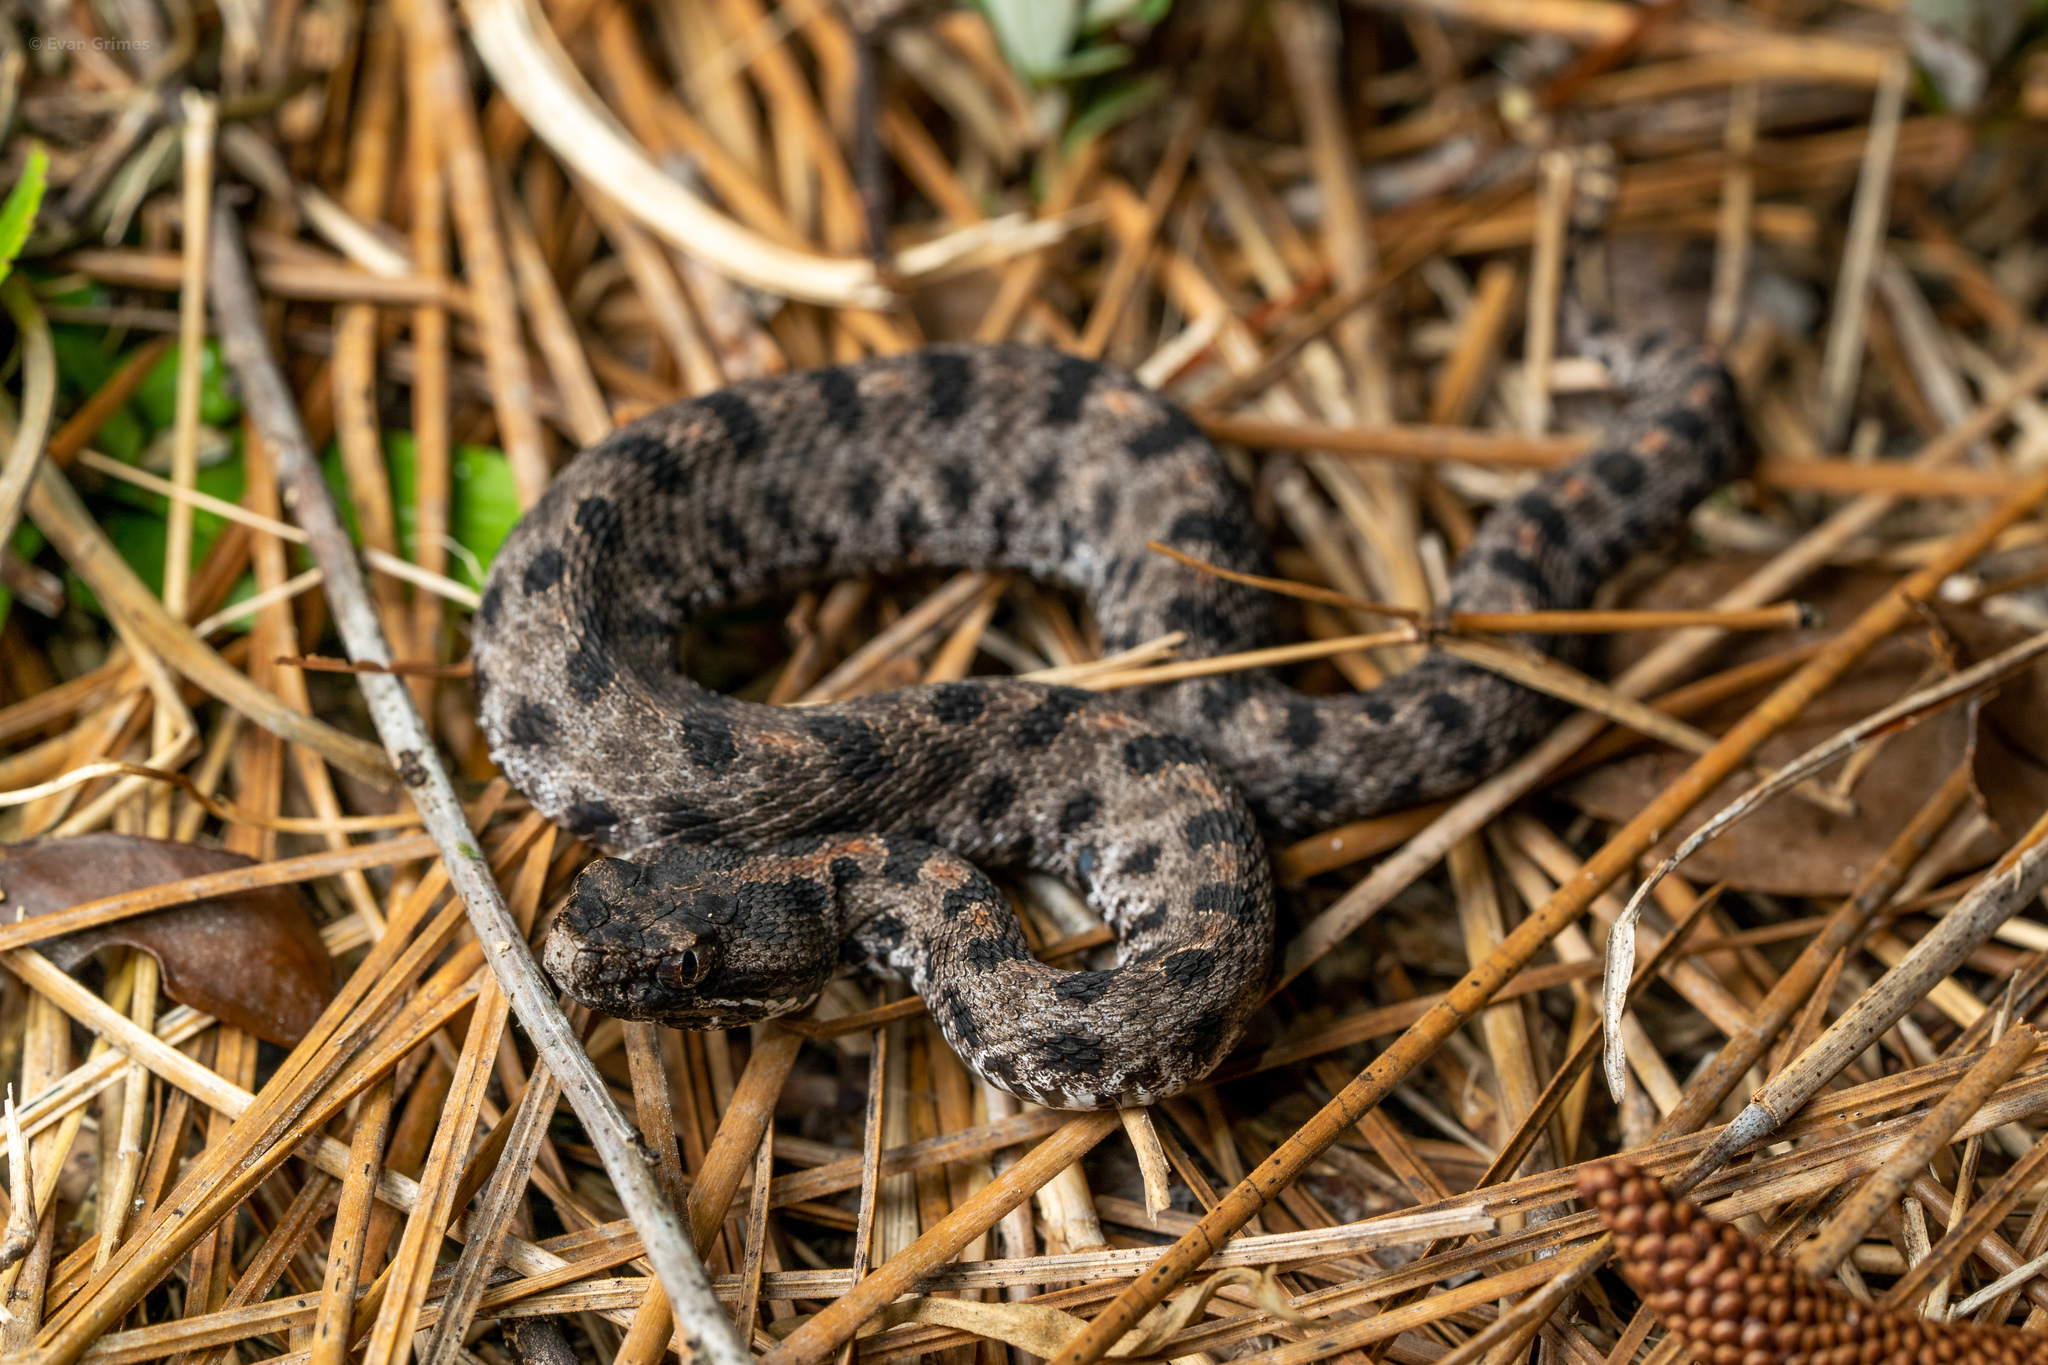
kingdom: Animalia
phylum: Chordata
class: Squamata
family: Viperidae
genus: Sistrurus
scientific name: Sistrurus miliarius
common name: Pygmy rattlesnake
